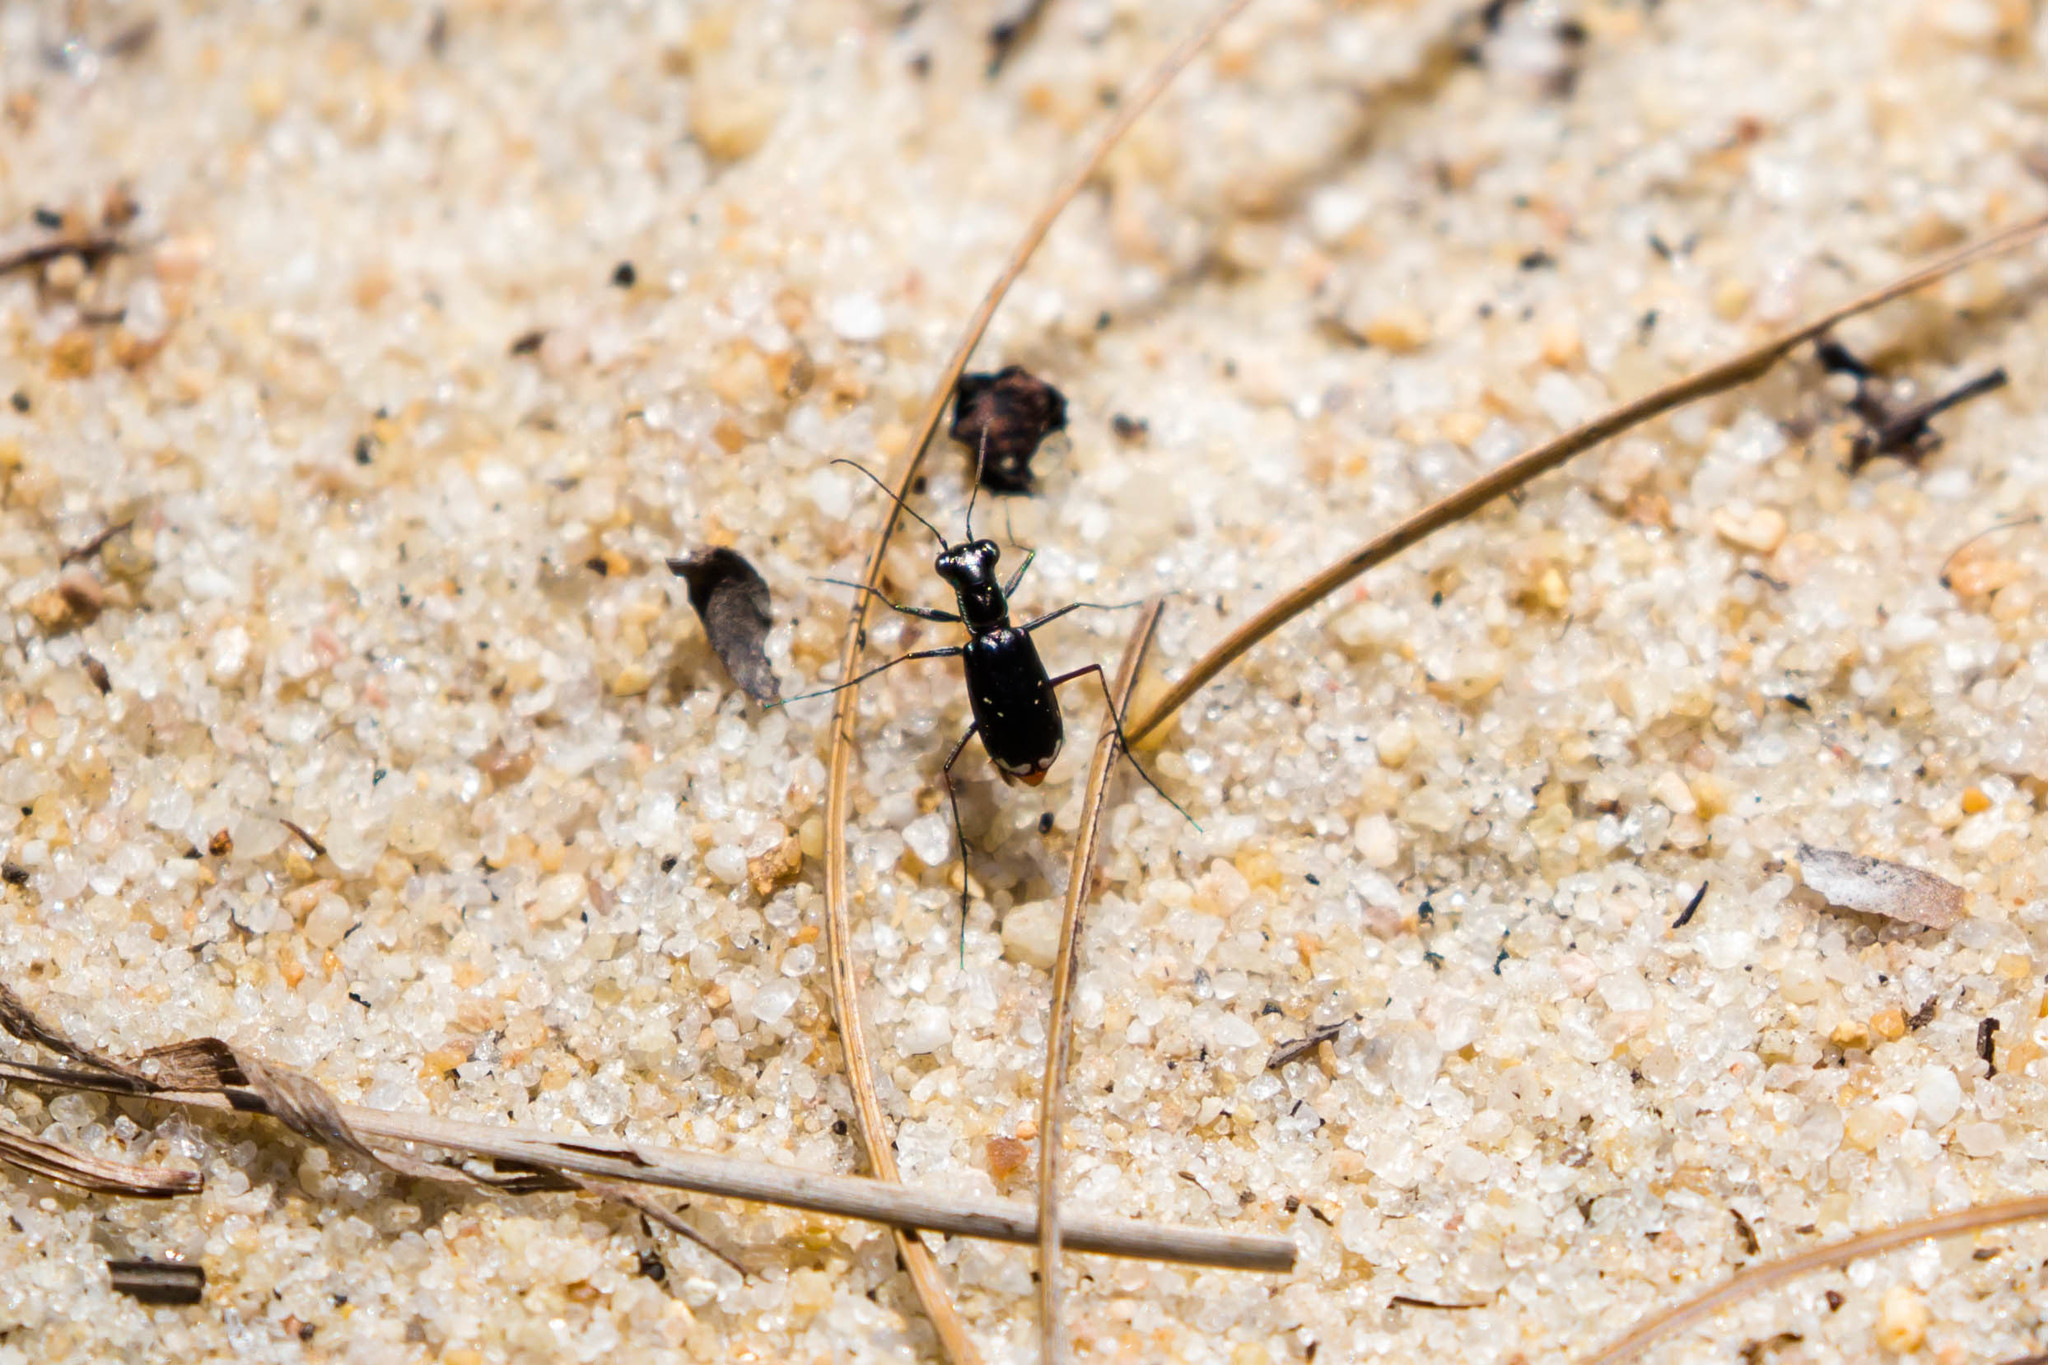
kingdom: Animalia
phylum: Arthropoda
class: Insecta
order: Coleoptera
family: Carabidae
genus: Cicindela
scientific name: Cicindela abdominalis
